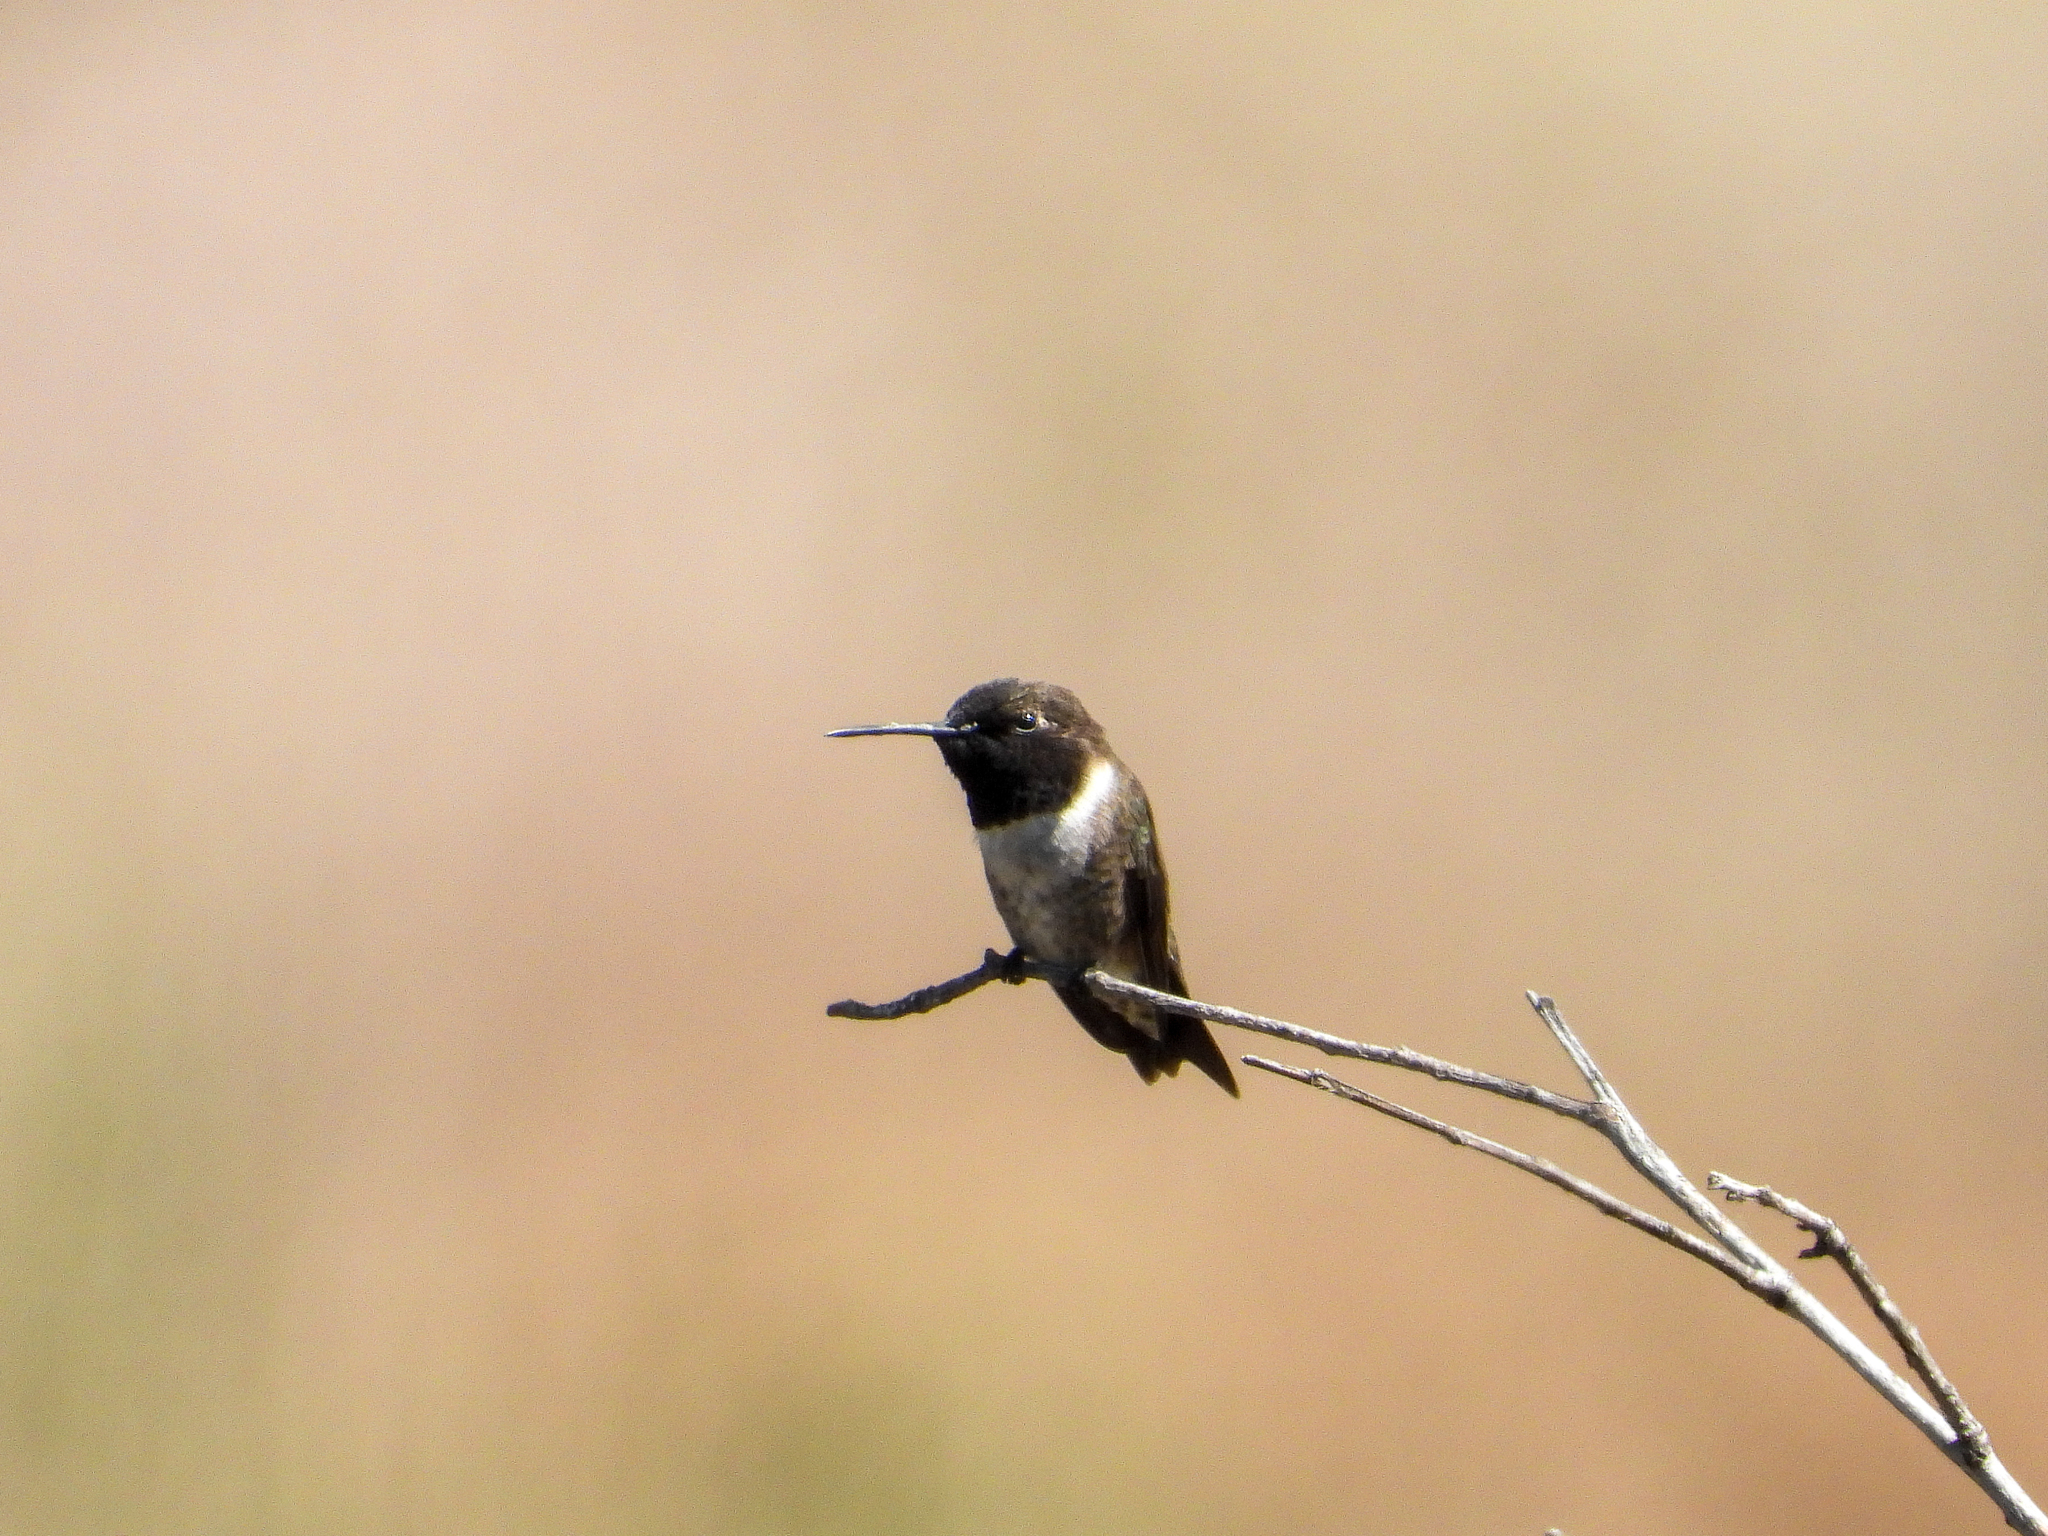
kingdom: Animalia
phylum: Chordata
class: Aves
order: Apodiformes
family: Trochilidae
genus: Archilochus
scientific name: Archilochus alexandri
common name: Black-chinned hummingbird
